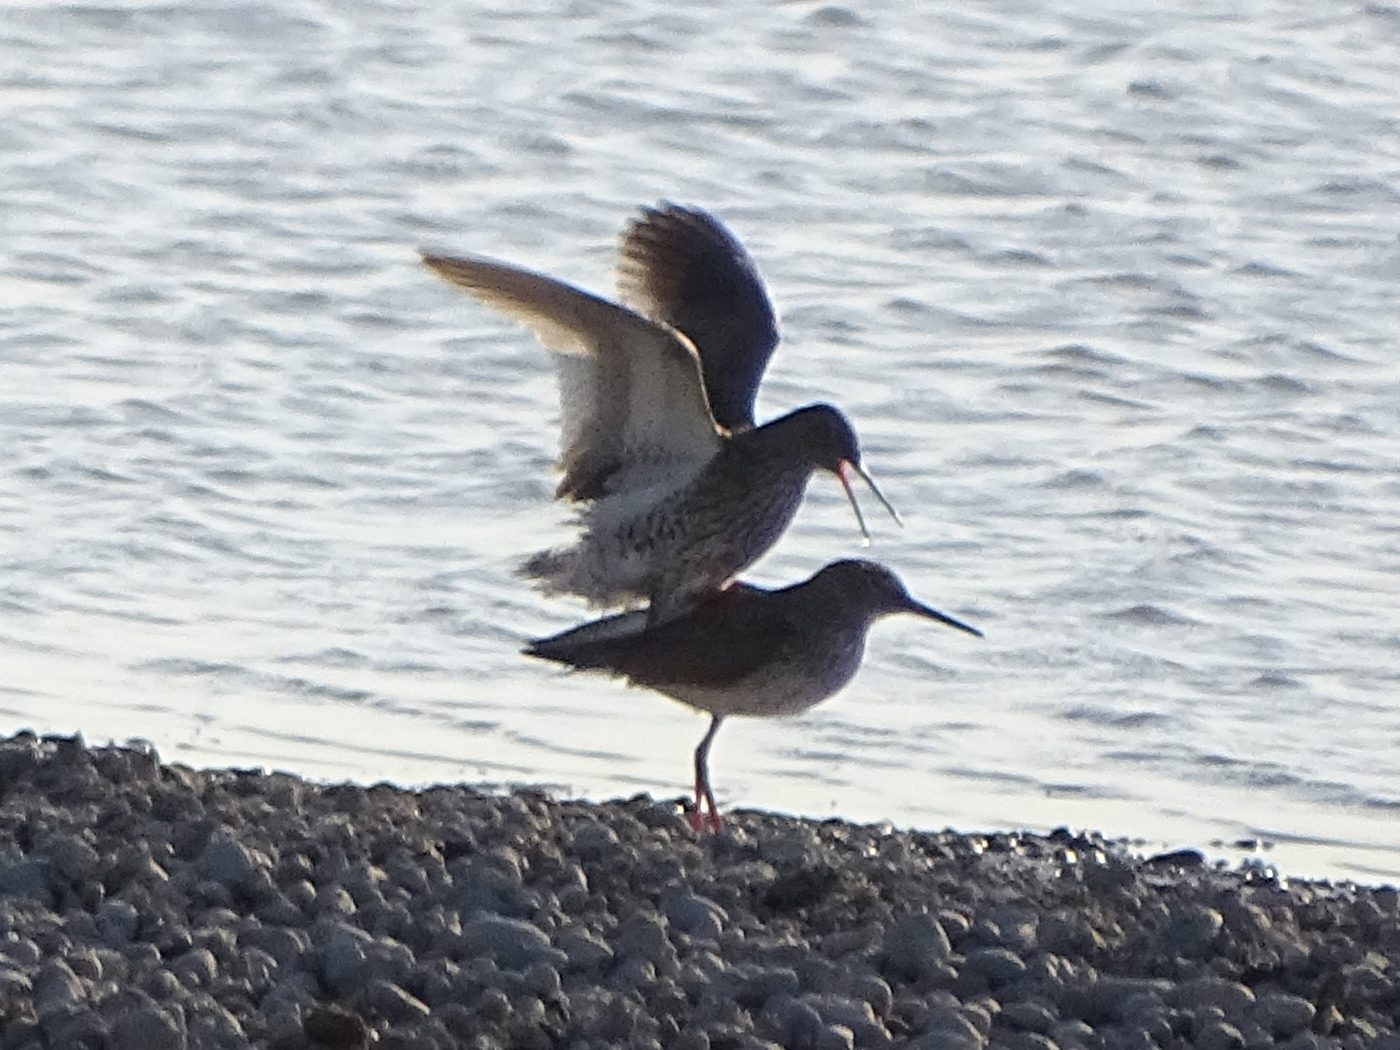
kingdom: Animalia
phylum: Chordata
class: Aves
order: Charadriiformes
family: Scolopacidae
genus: Tringa
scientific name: Tringa totanus
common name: Common redshank
